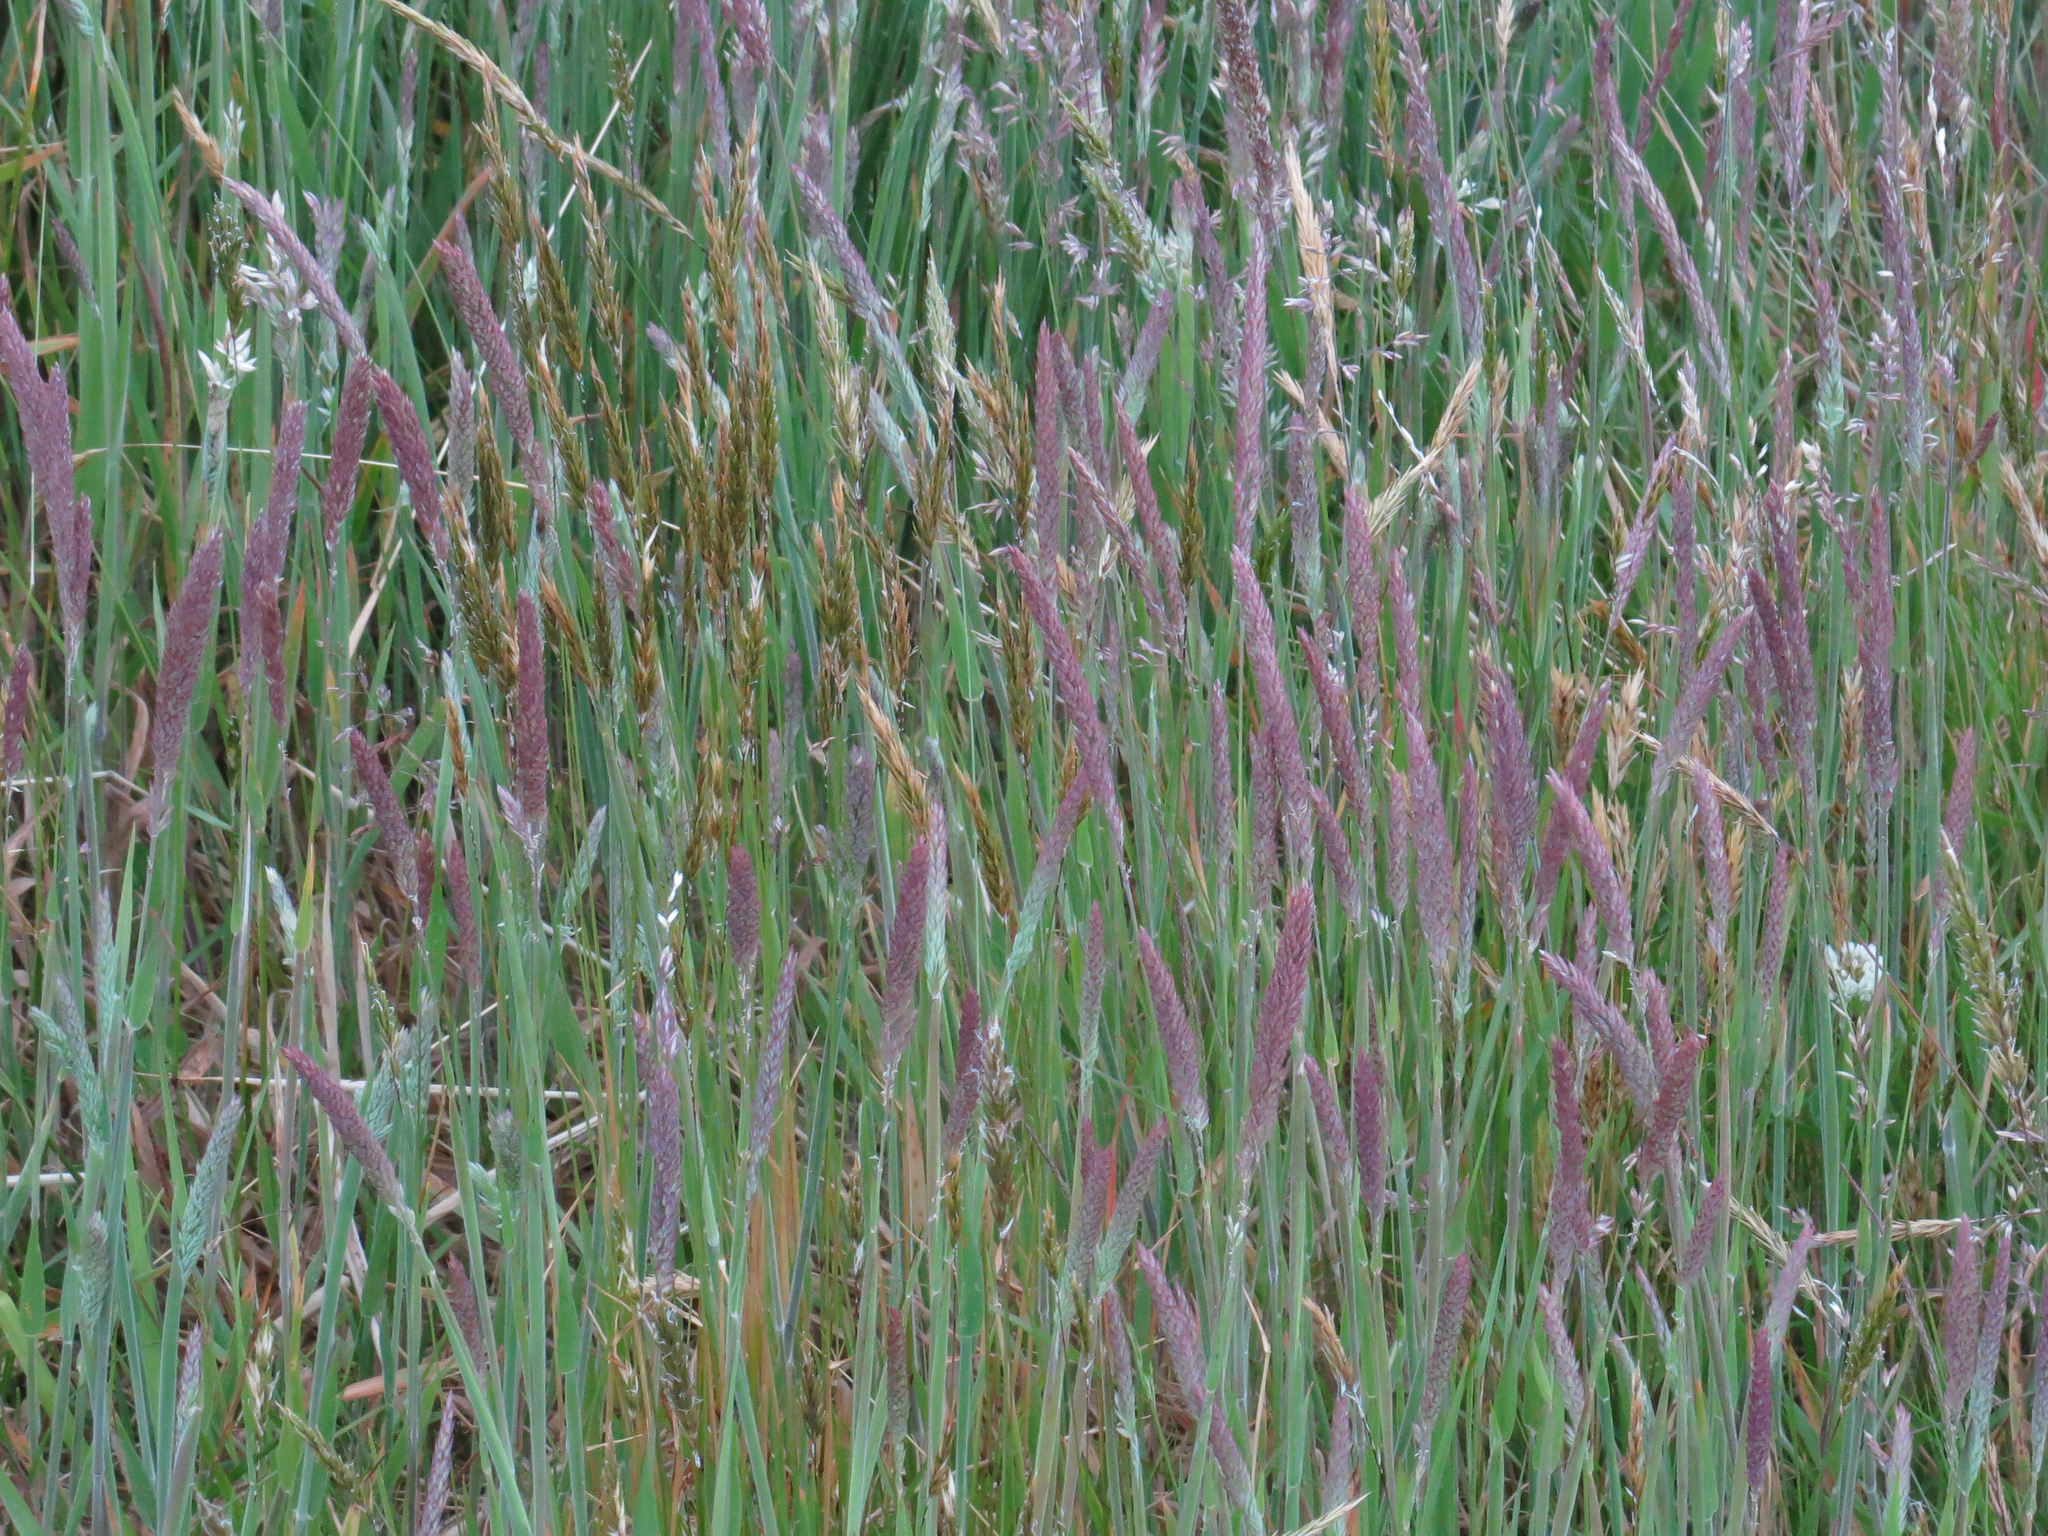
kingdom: Plantae
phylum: Tracheophyta
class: Liliopsida
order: Poales
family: Poaceae
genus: Holcus
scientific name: Holcus lanatus
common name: Yorkshire-fog
